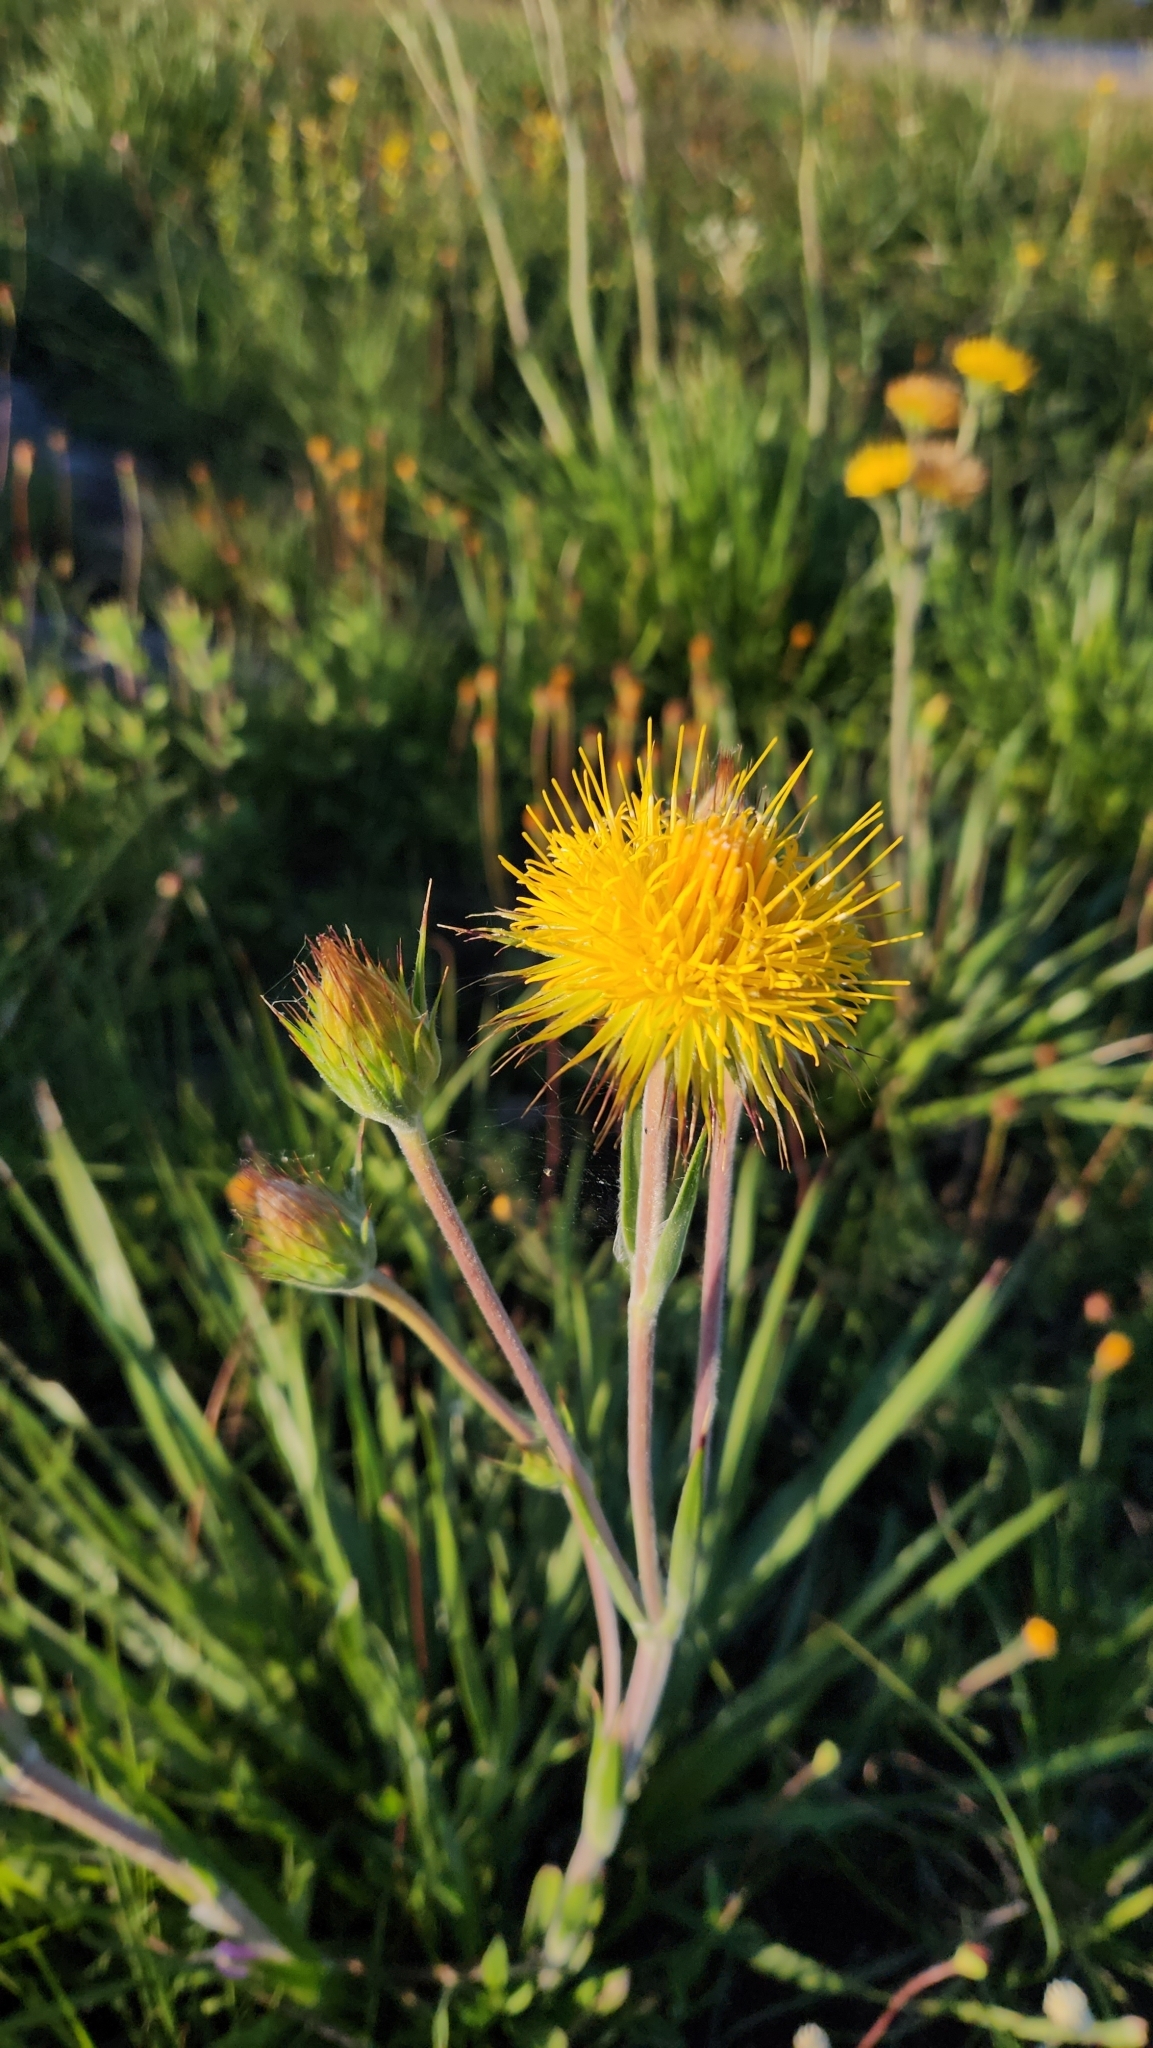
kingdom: Plantae
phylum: Tracheophyta
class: Magnoliopsida
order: Asterales
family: Asteraceae
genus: Schlechtendalia
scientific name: Schlechtendalia luzulifolia
